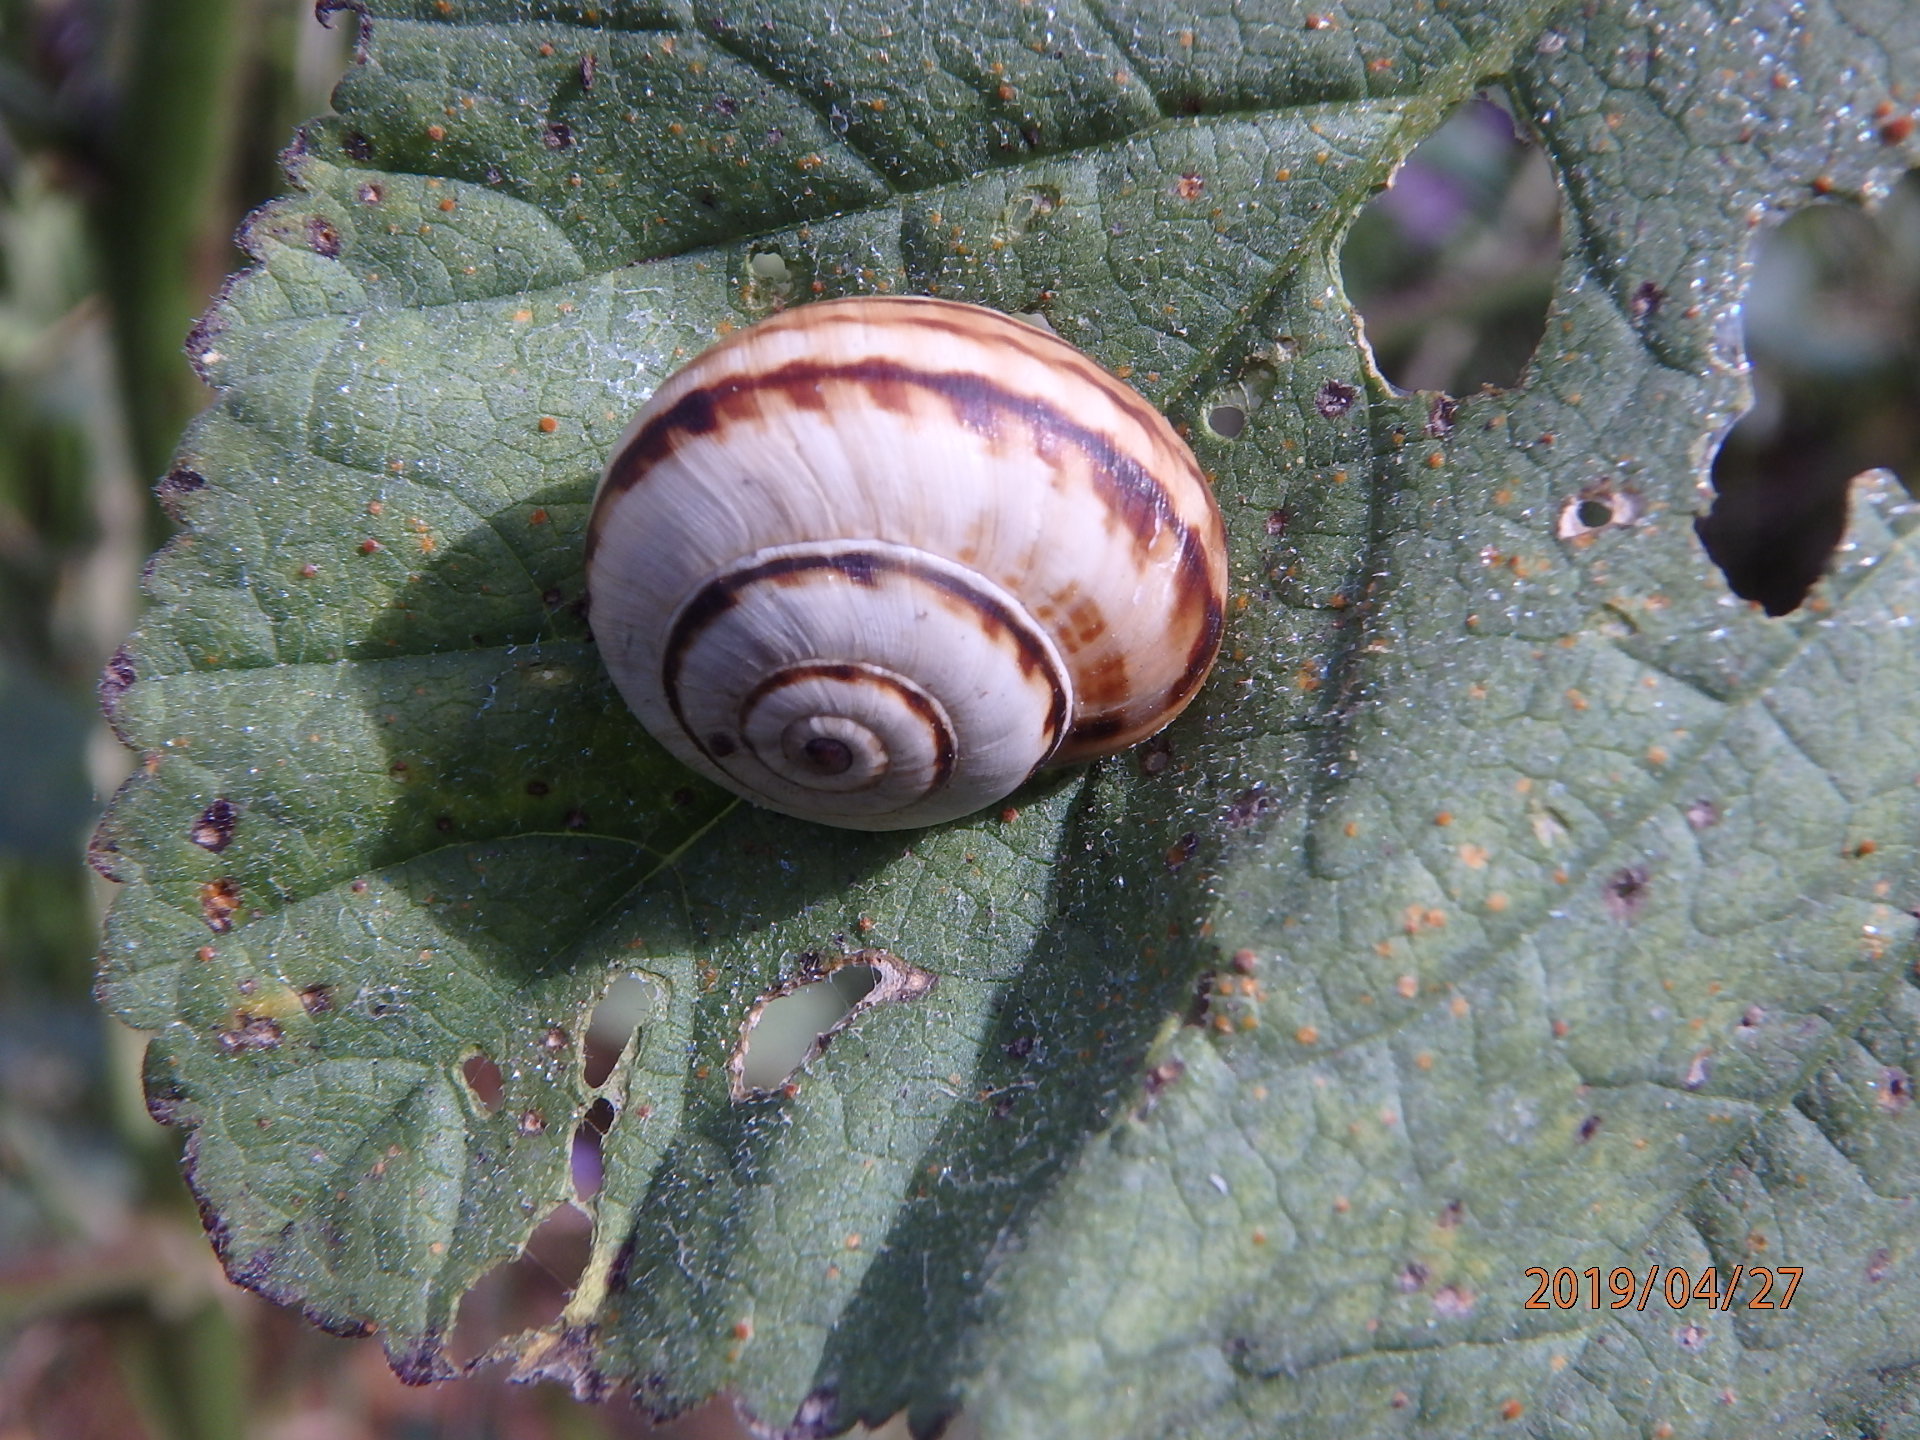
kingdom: Animalia
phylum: Mollusca
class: Gastropoda
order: Stylommatophora
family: Helicidae
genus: Theba
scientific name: Theba pisana
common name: White snail
